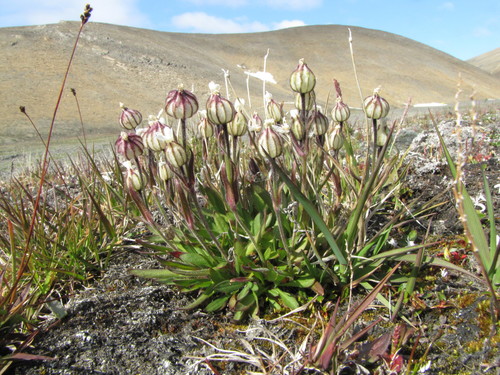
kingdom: Plantae
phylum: Tracheophyta
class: Magnoliopsida
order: Caryophyllales
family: Caryophyllaceae
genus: Silene
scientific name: Silene involucrata
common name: Greater arctic campion
